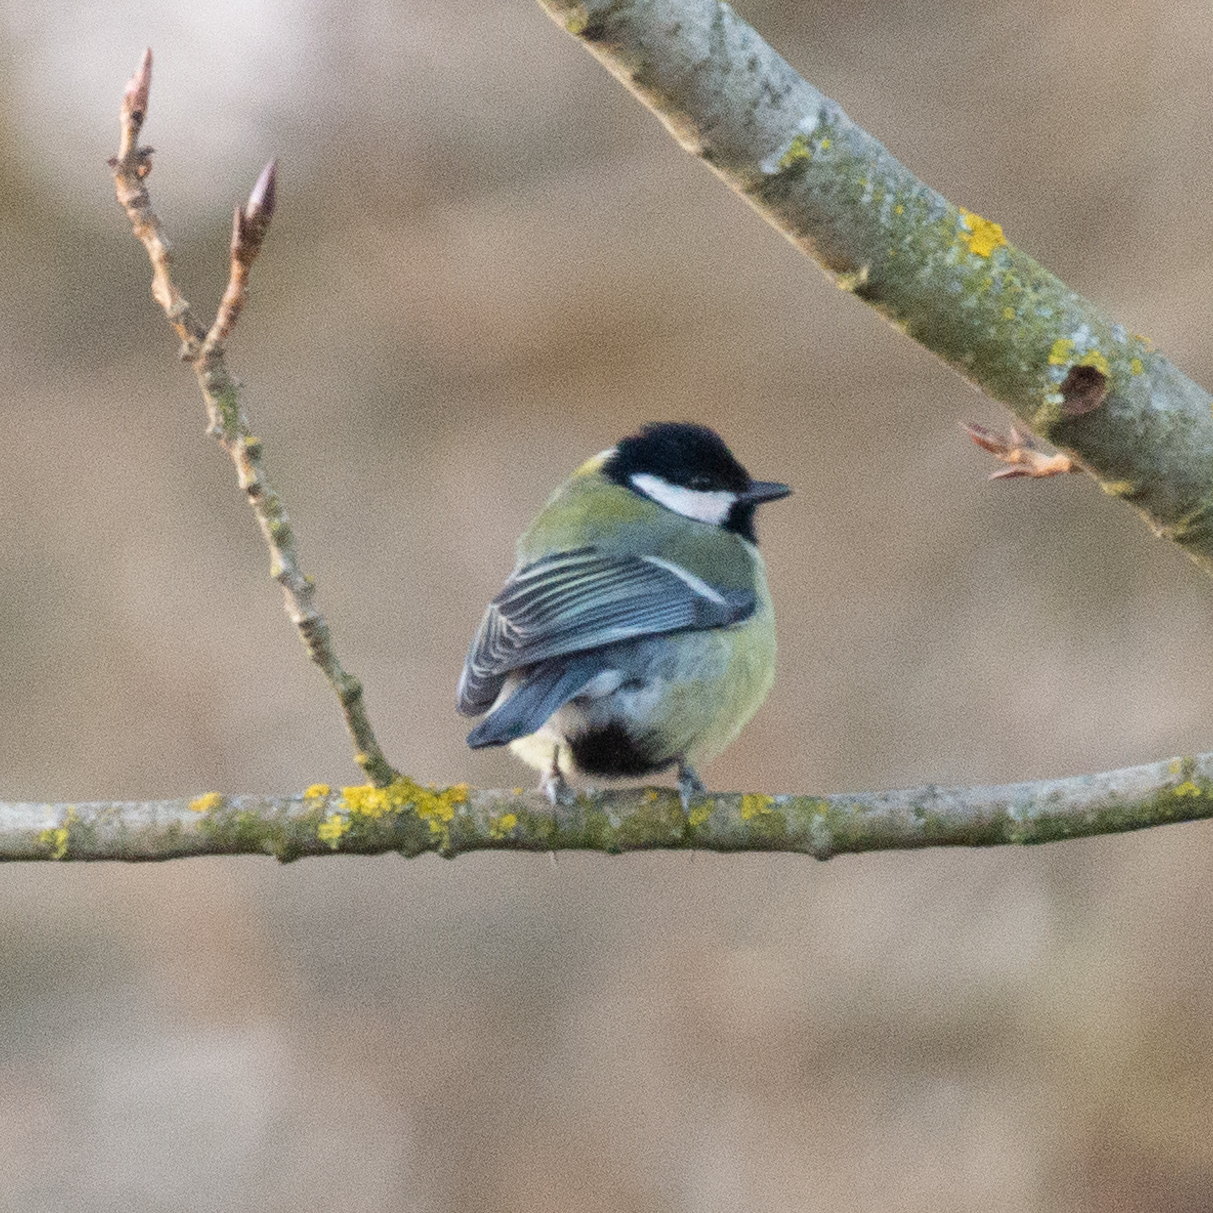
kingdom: Animalia
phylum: Chordata
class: Aves
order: Passeriformes
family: Paridae
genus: Parus
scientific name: Parus major
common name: Great tit
